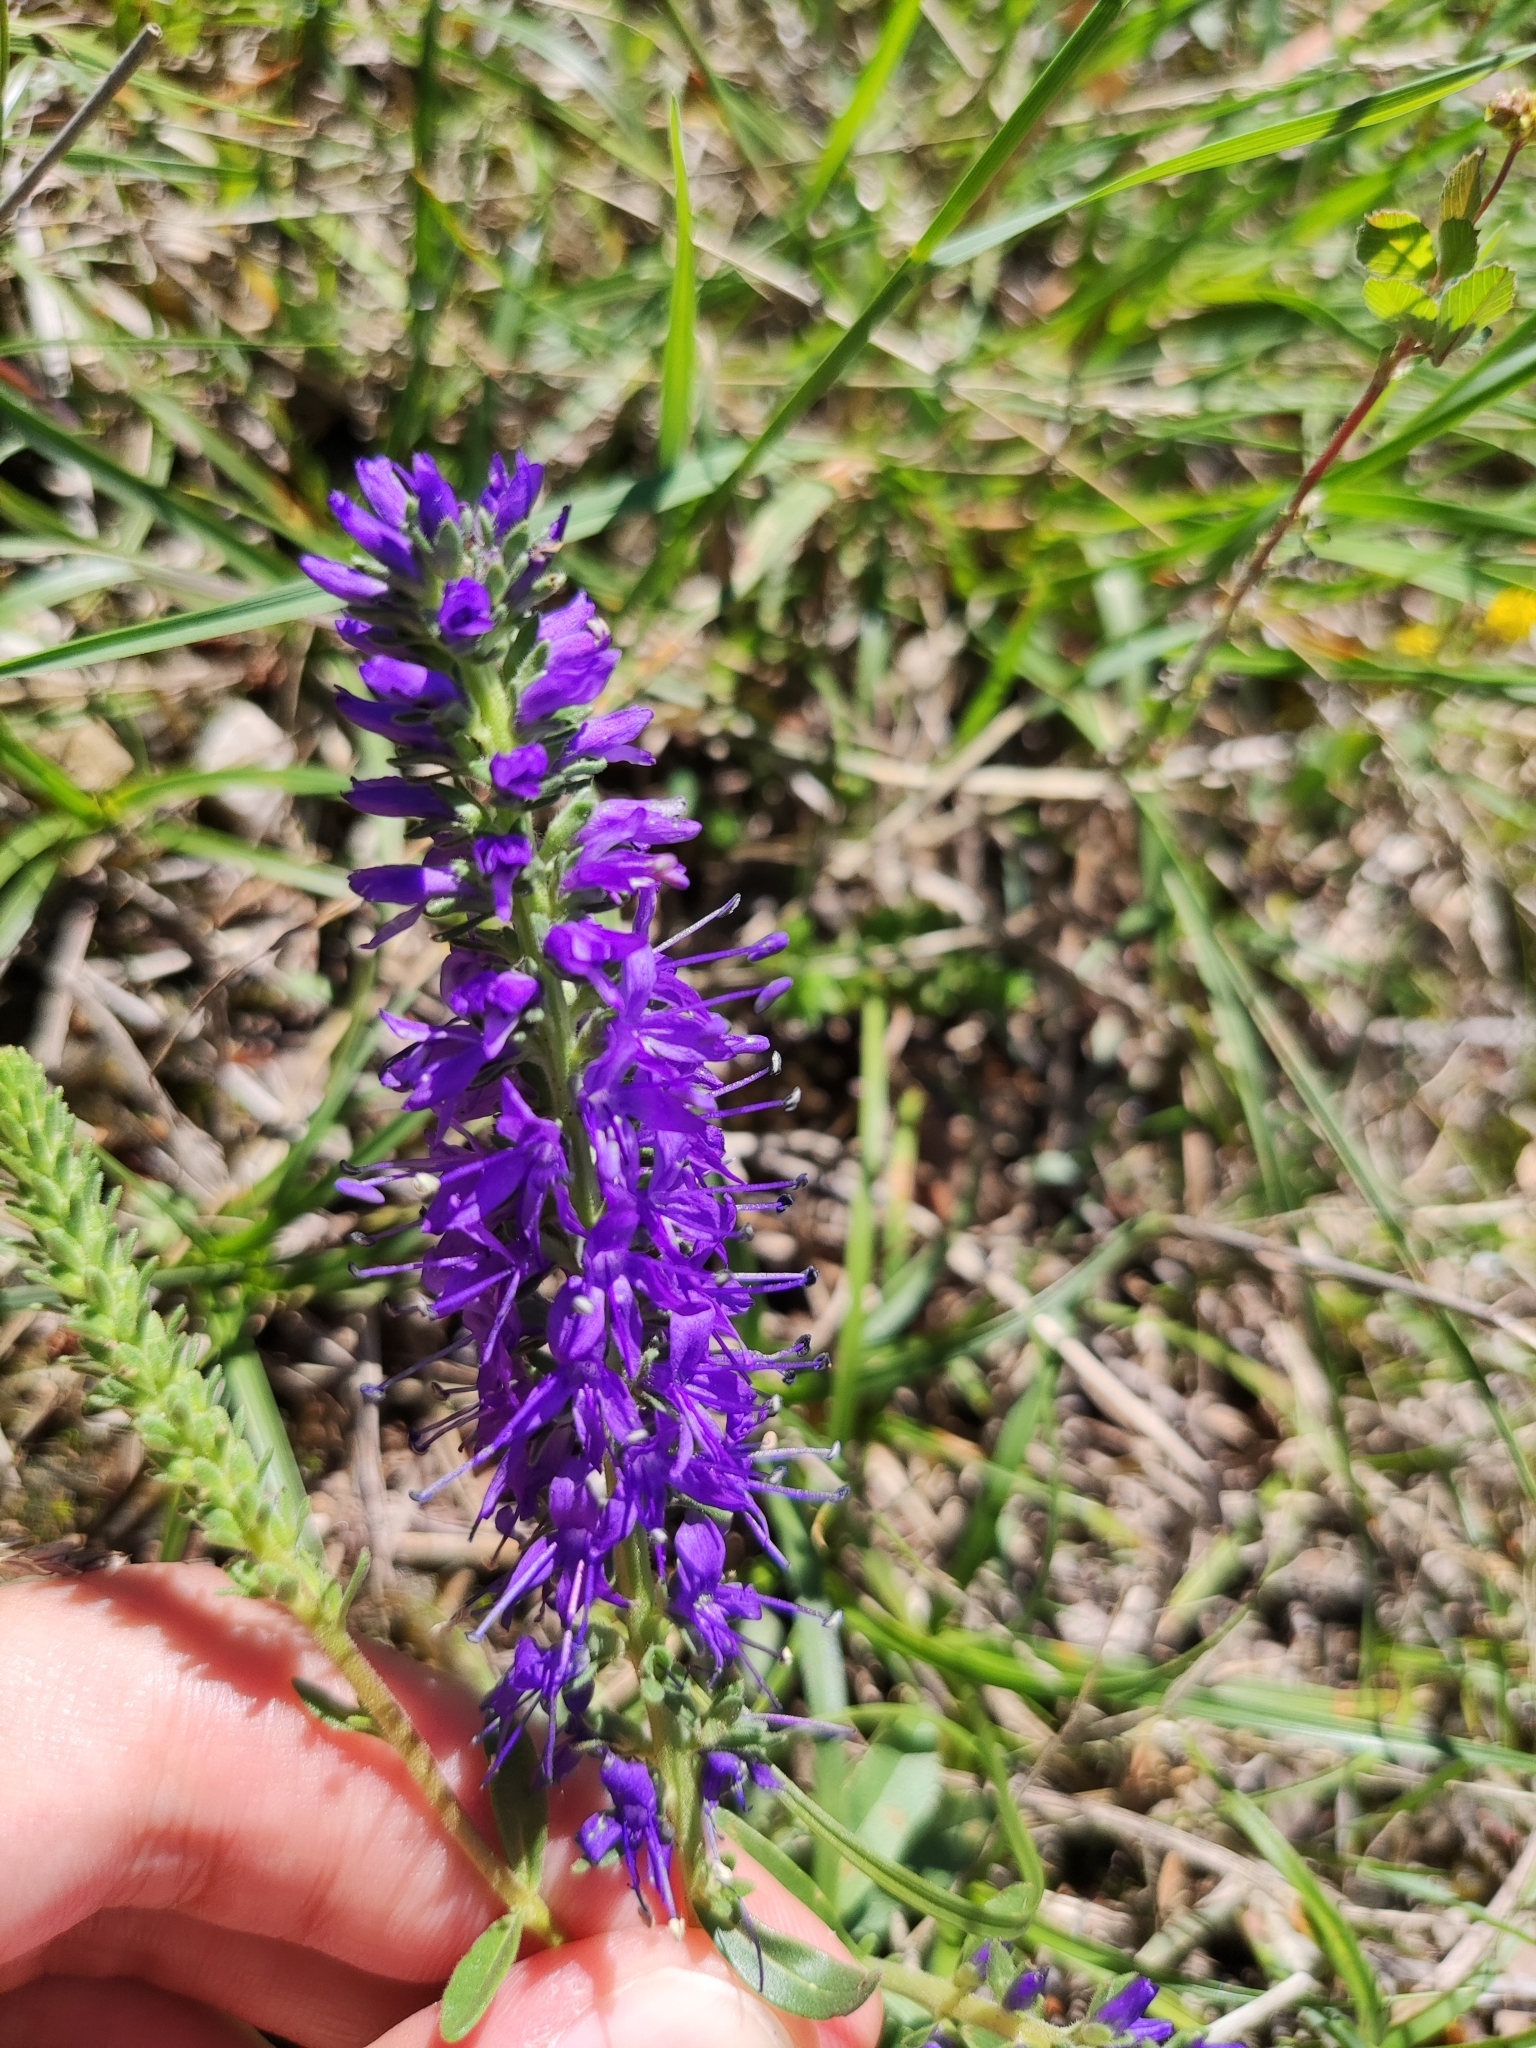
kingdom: Plantae
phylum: Tracheophyta
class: Magnoliopsida
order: Lamiales
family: Plantaginaceae
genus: Veronica
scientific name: Veronica spicata
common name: Spiked speedwell
